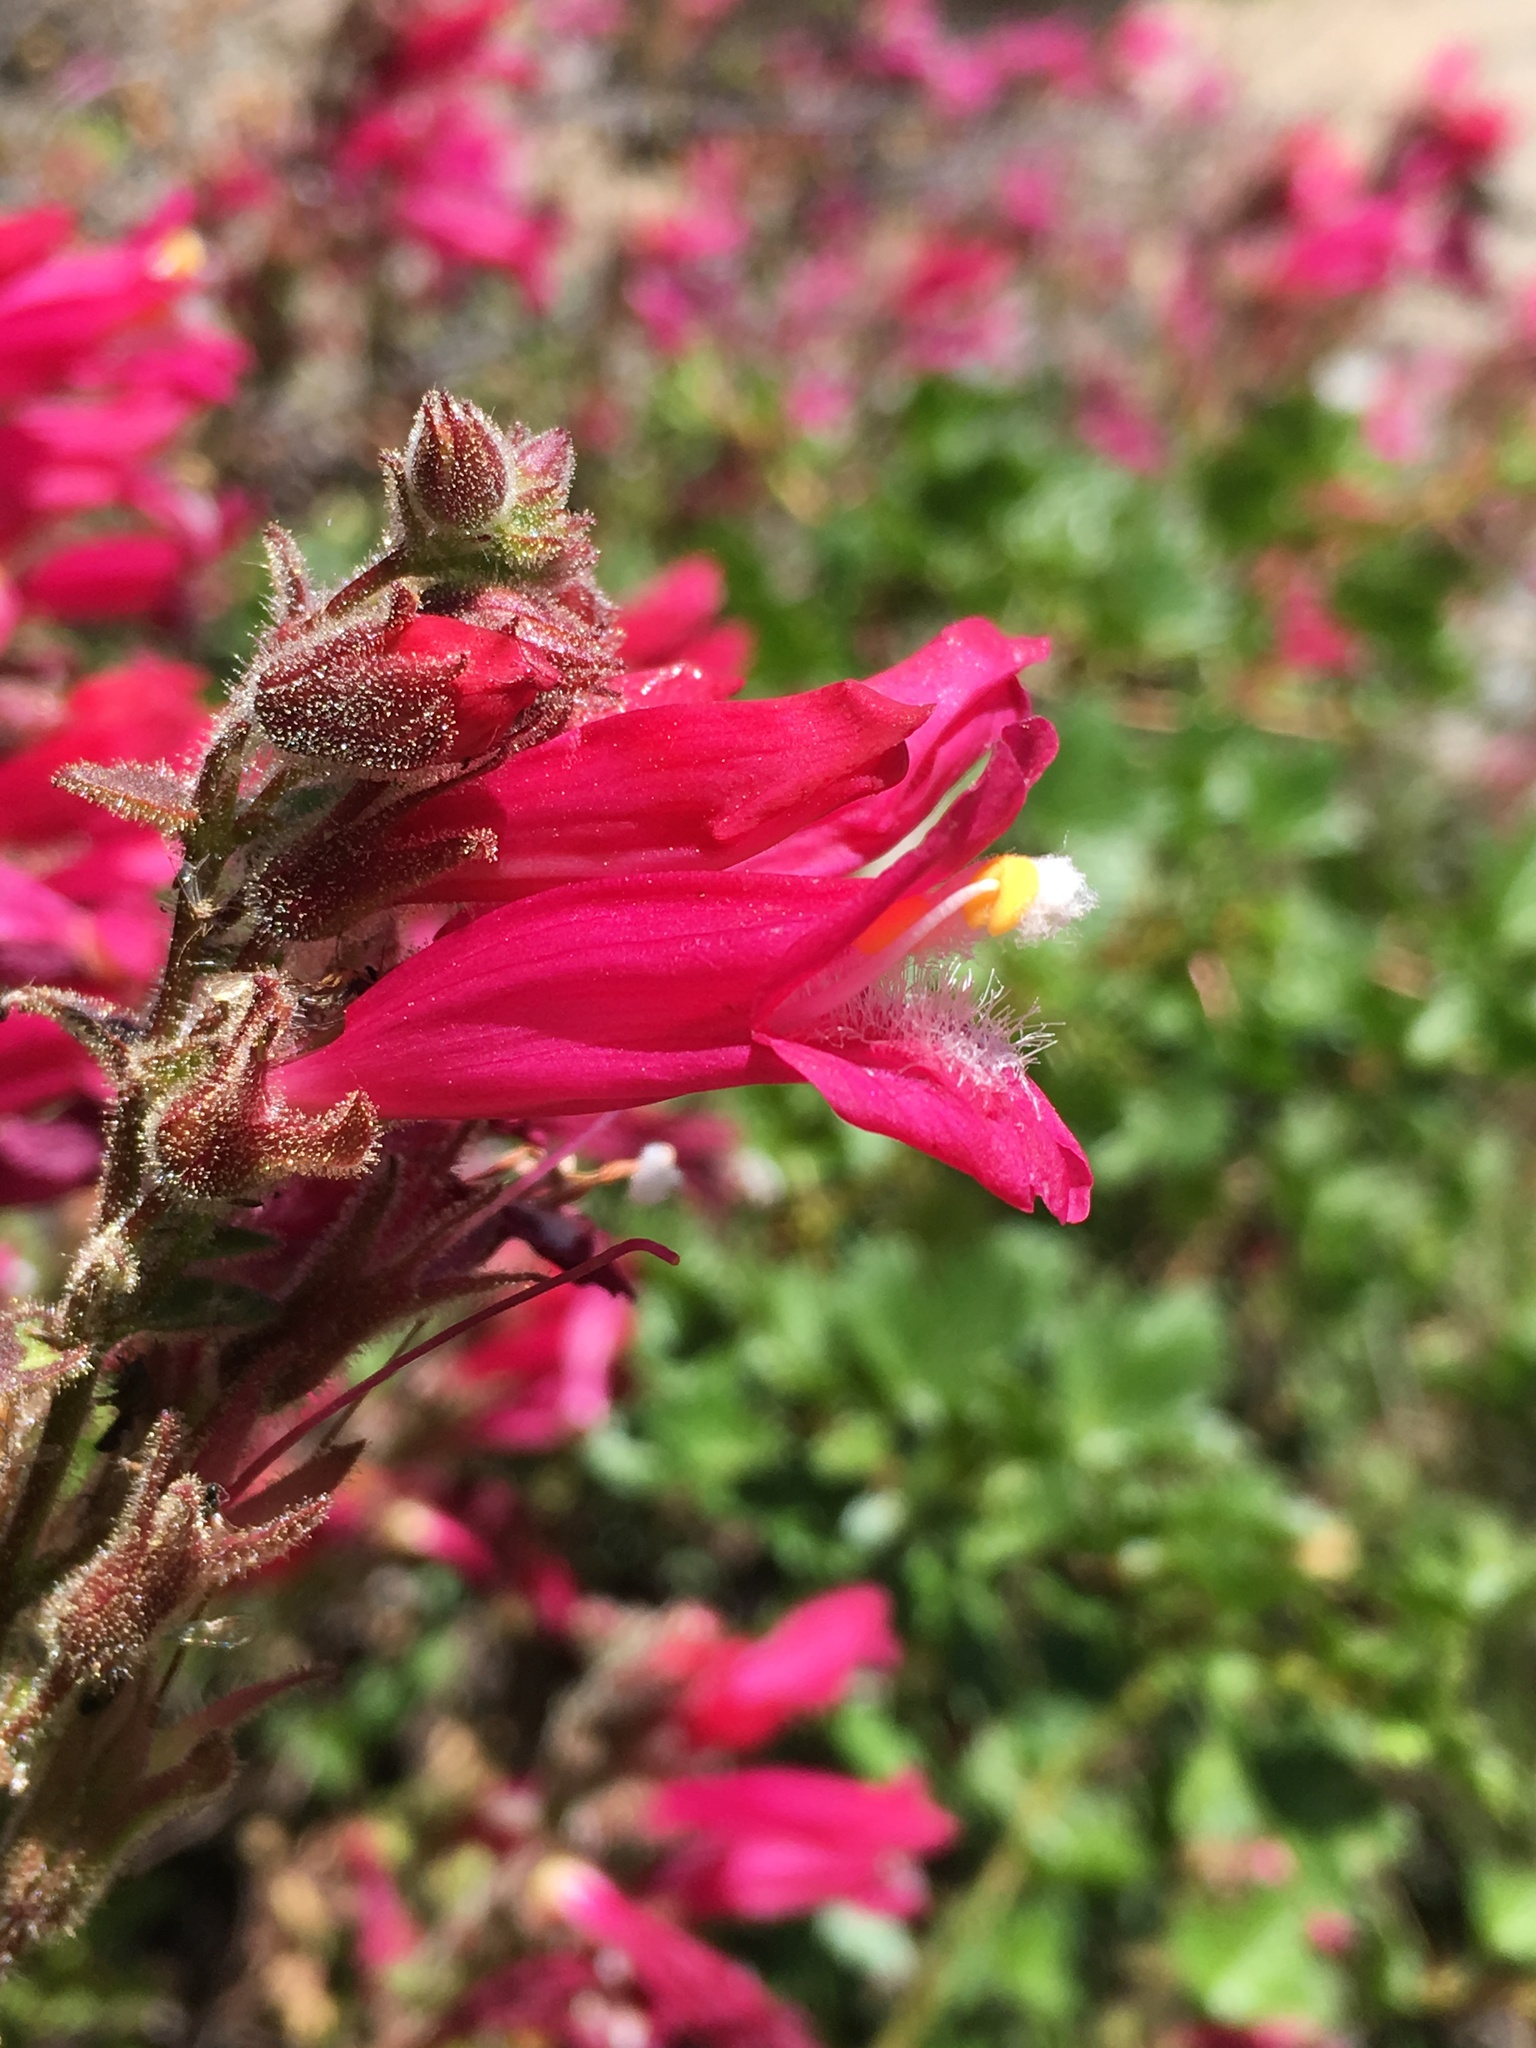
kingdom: Plantae
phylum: Tracheophyta
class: Magnoliopsida
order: Lamiales
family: Plantaginaceae
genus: Penstemon
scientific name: Penstemon newberryi
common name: Mountain-pride
